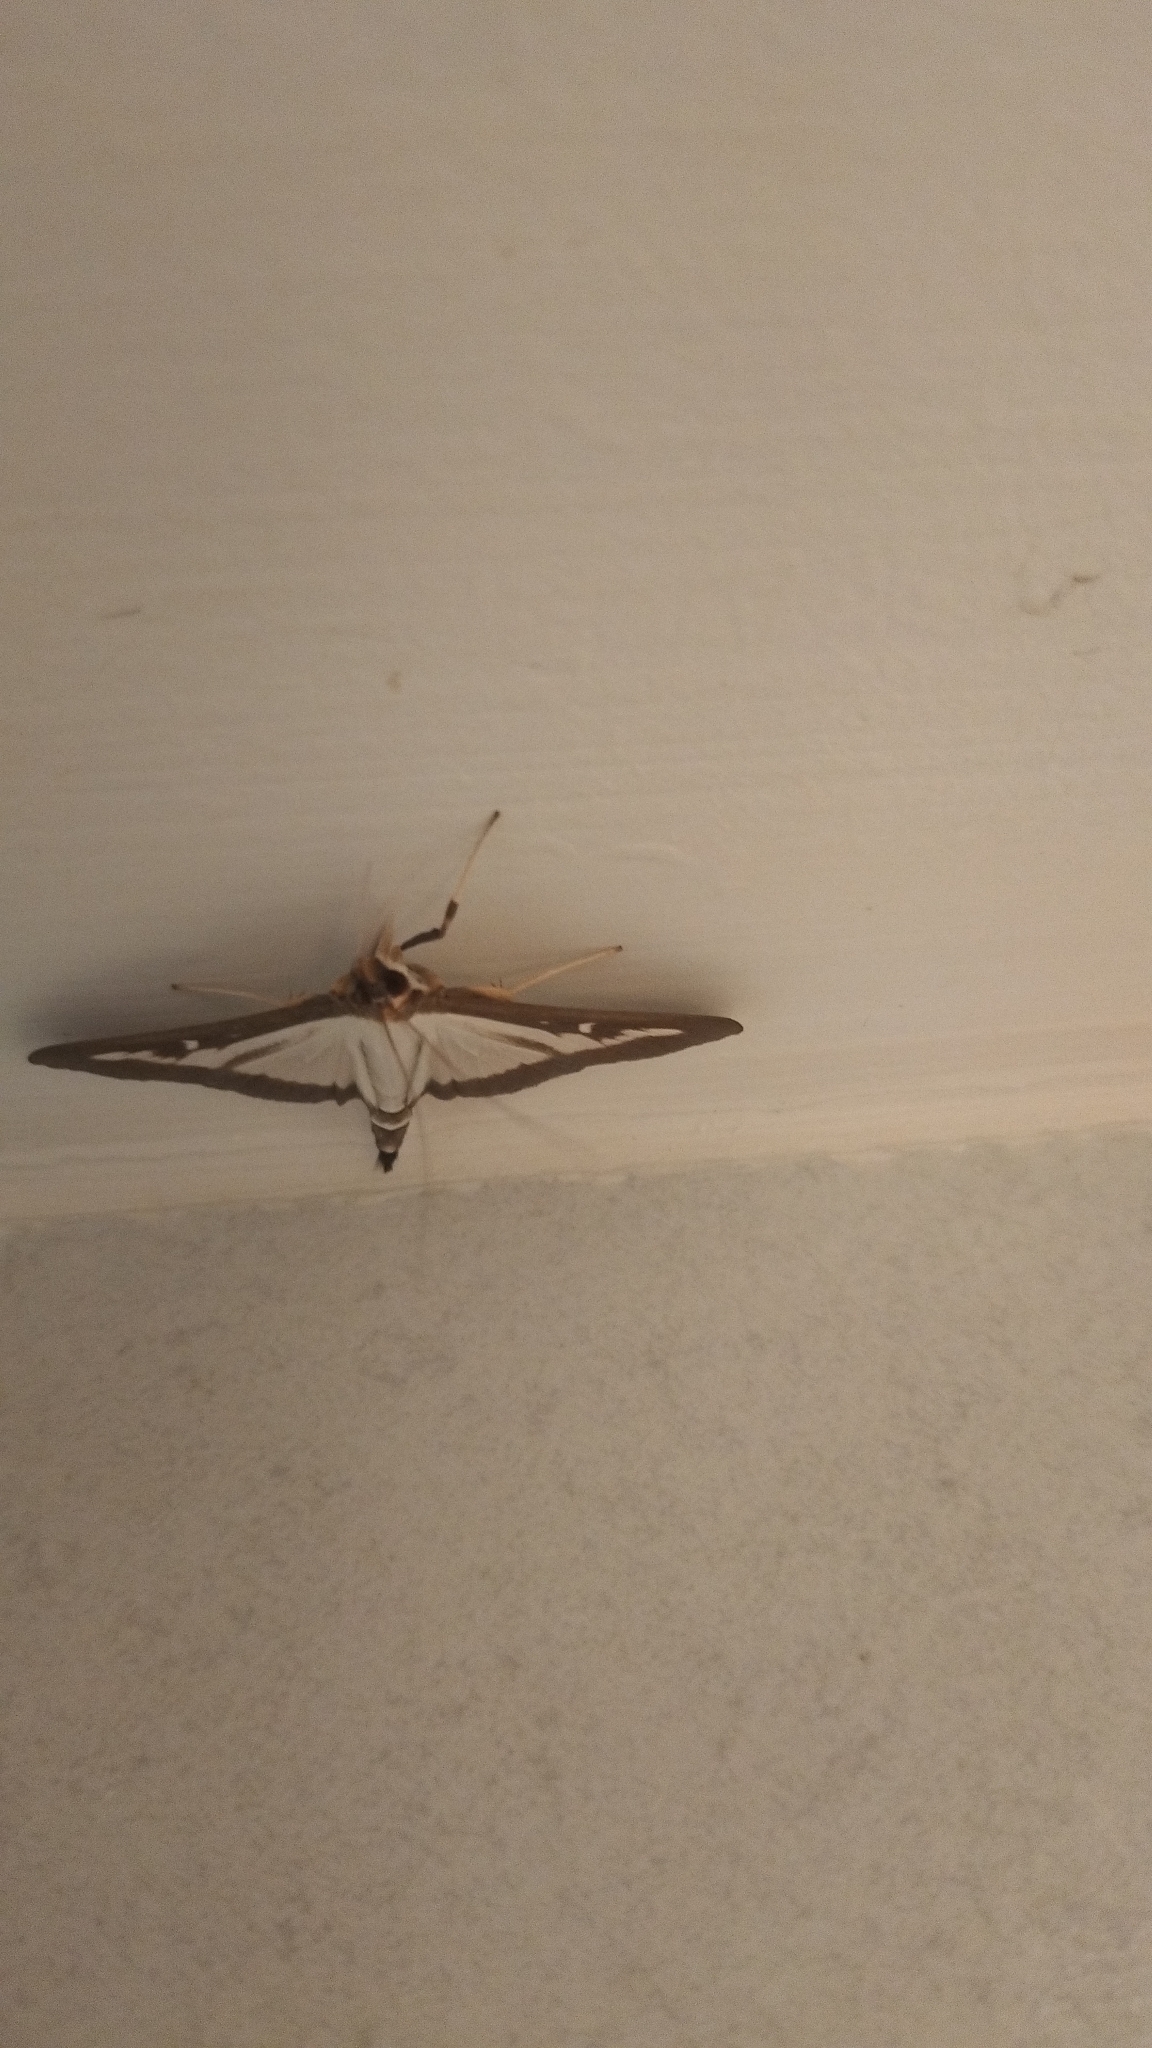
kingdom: Animalia
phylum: Arthropoda
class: Insecta
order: Lepidoptera
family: Crambidae
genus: Cydalima
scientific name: Cydalima perspectalis
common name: Box tree moth
